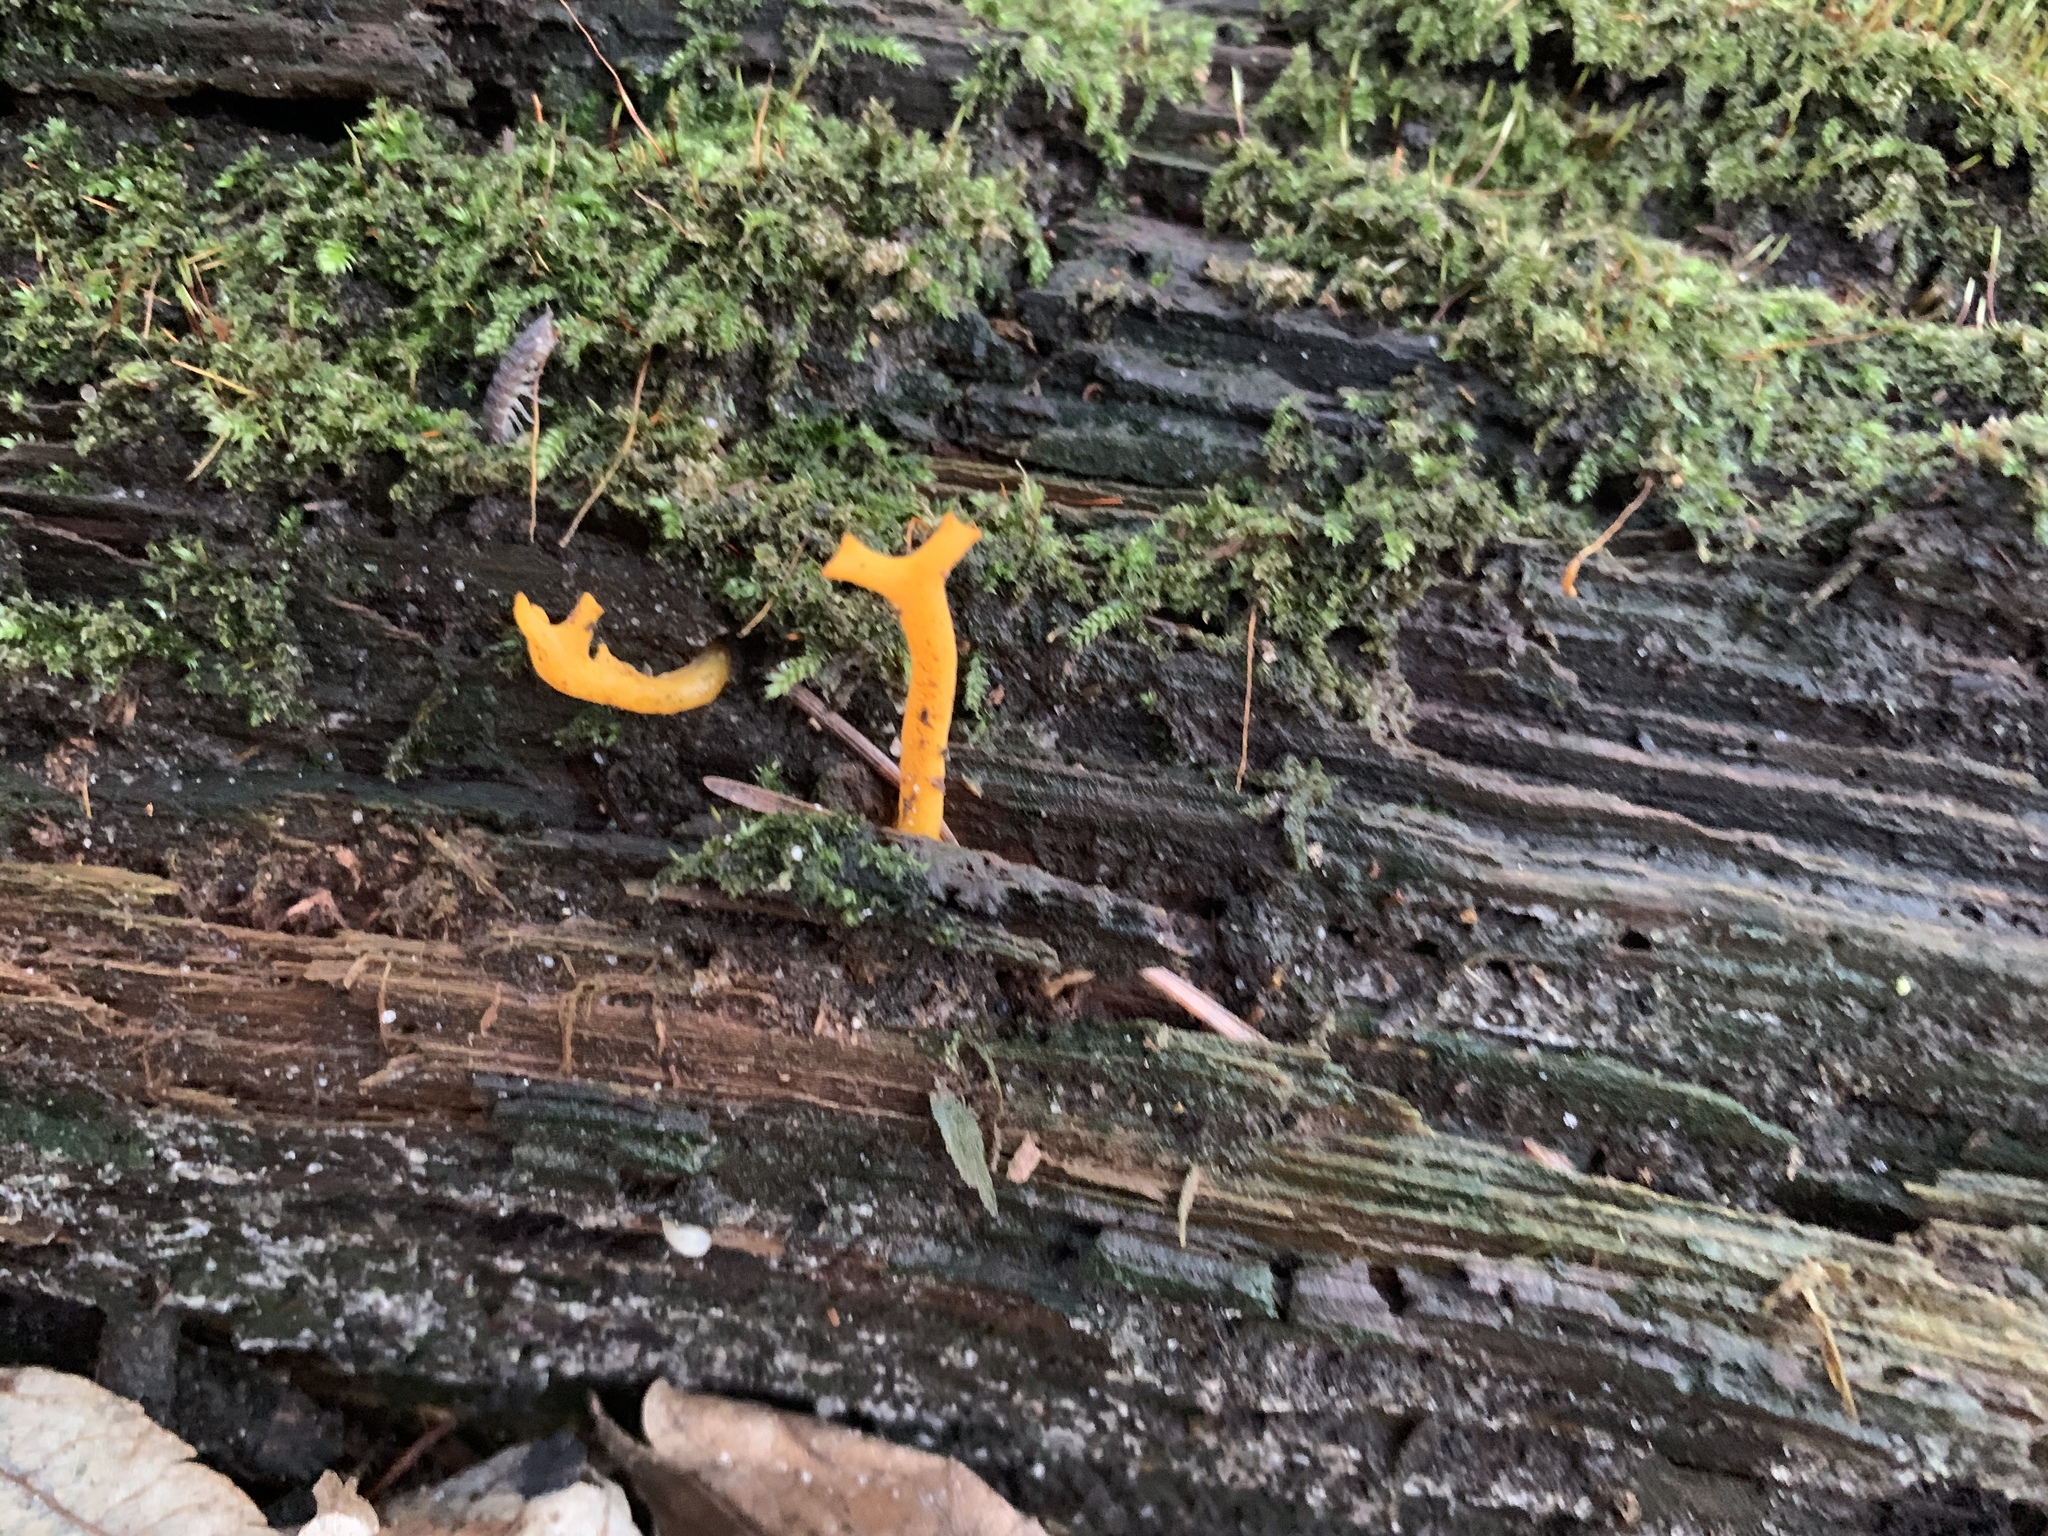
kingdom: Fungi
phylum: Basidiomycota
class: Dacrymycetes
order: Dacrymycetales
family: Dacrymycetaceae
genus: Calocera
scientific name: Calocera viscosa
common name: Yellow stagshorn
